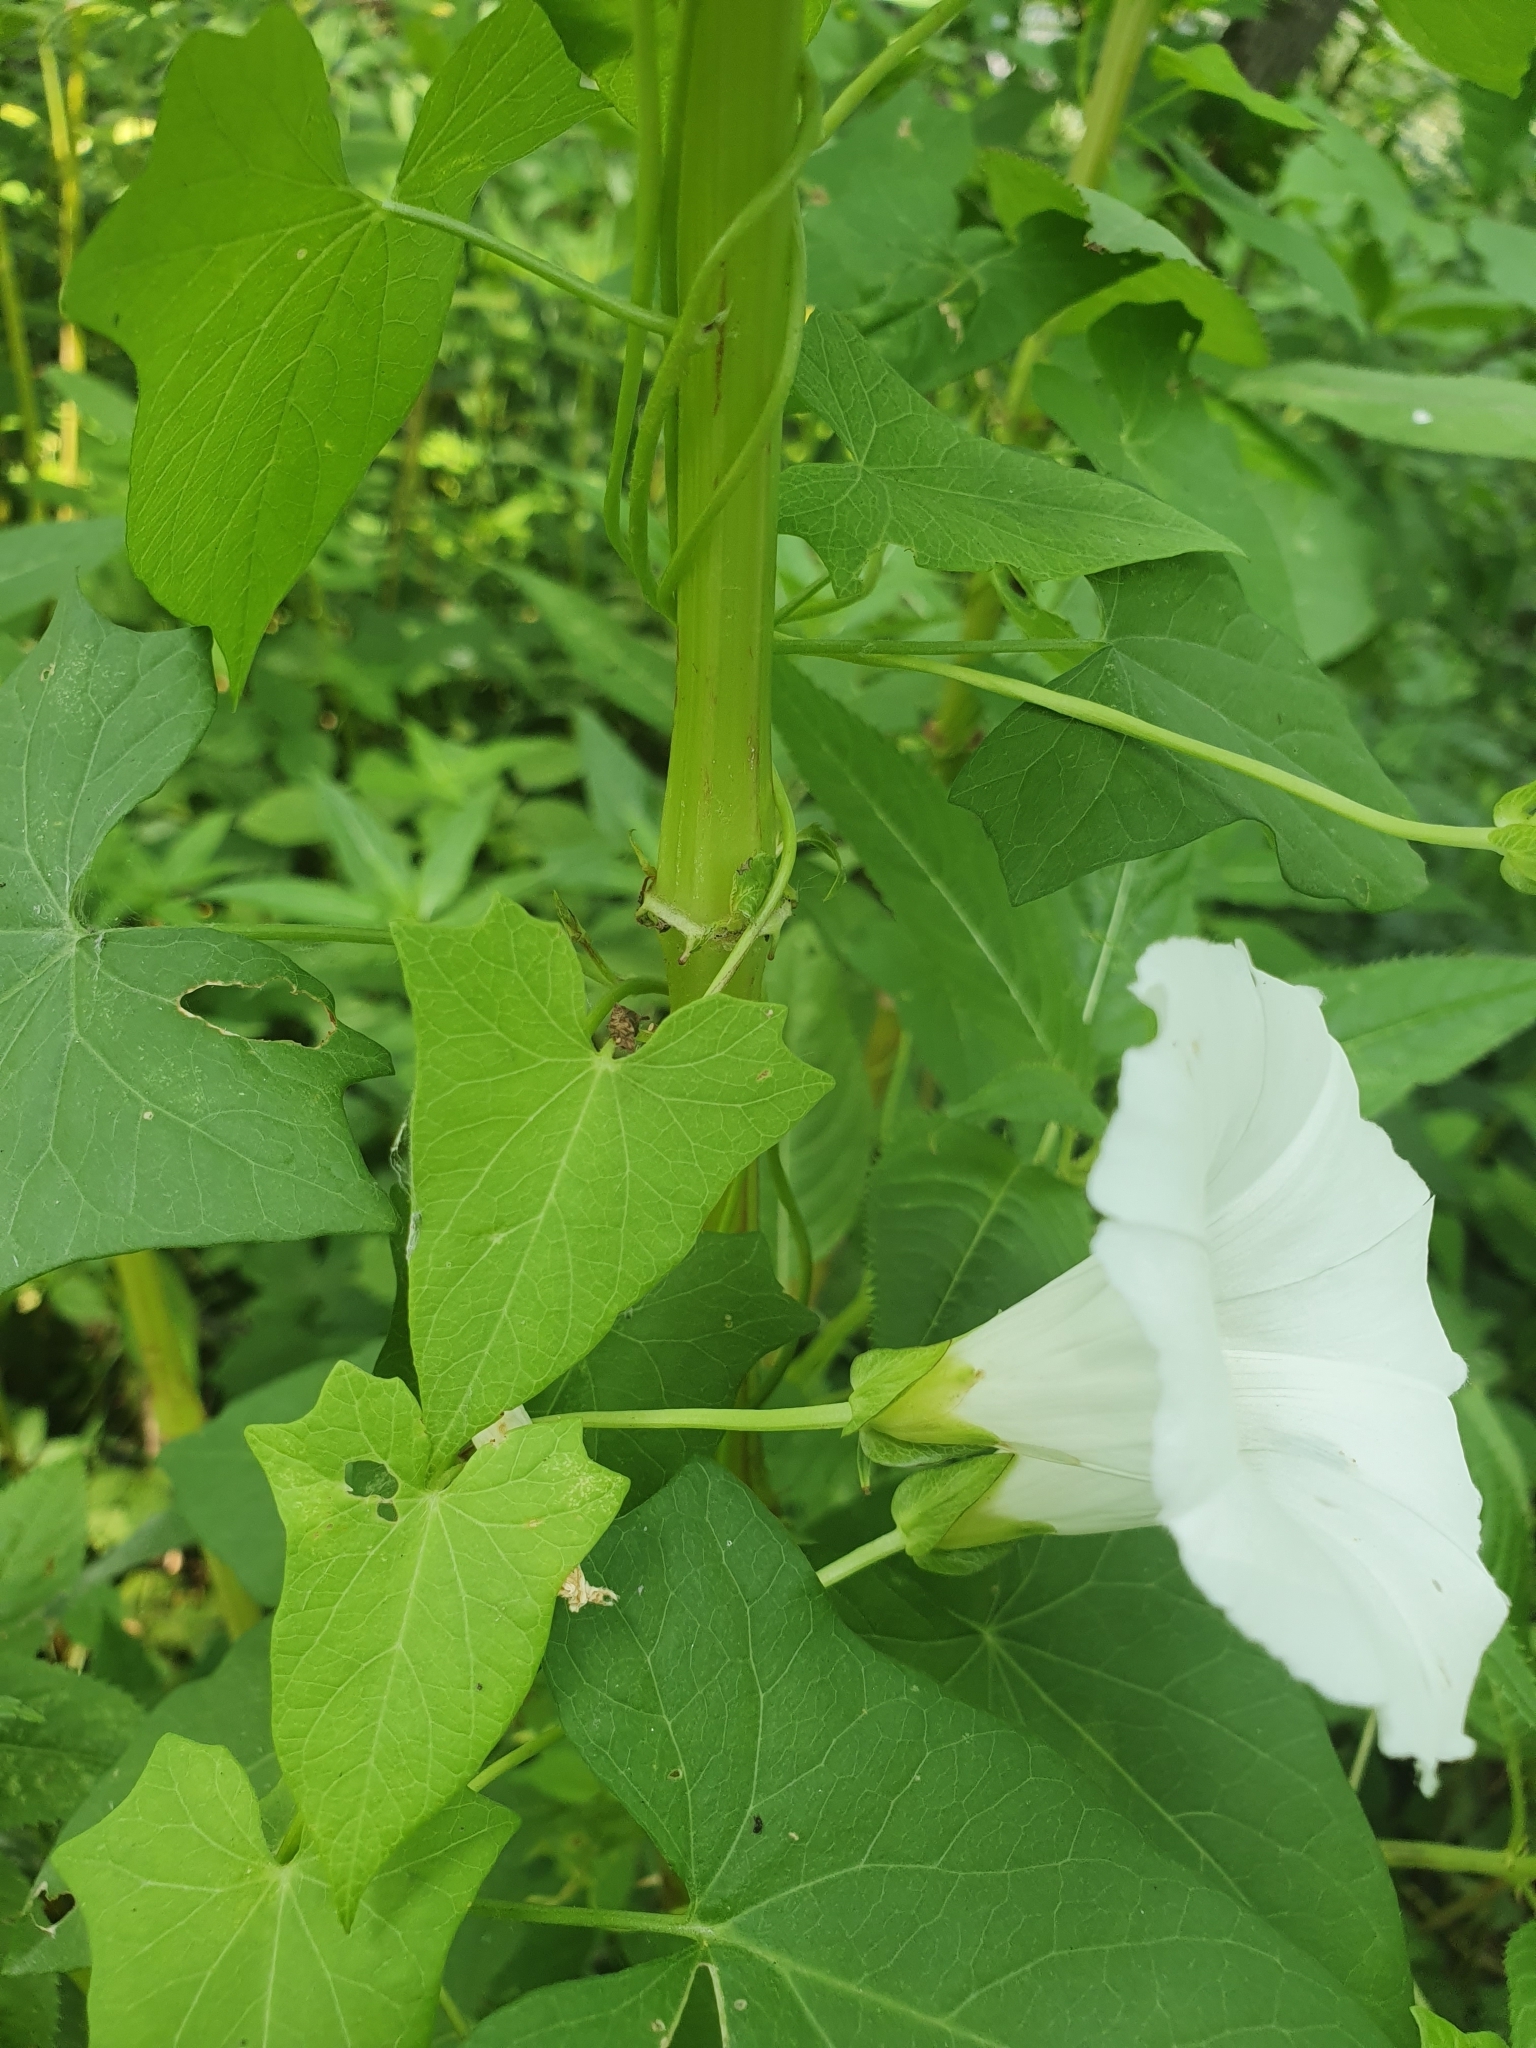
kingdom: Plantae
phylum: Tracheophyta
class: Magnoliopsida
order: Solanales
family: Convolvulaceae
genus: Calystegia
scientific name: Calystegia sepium
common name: Hedge bindweed
